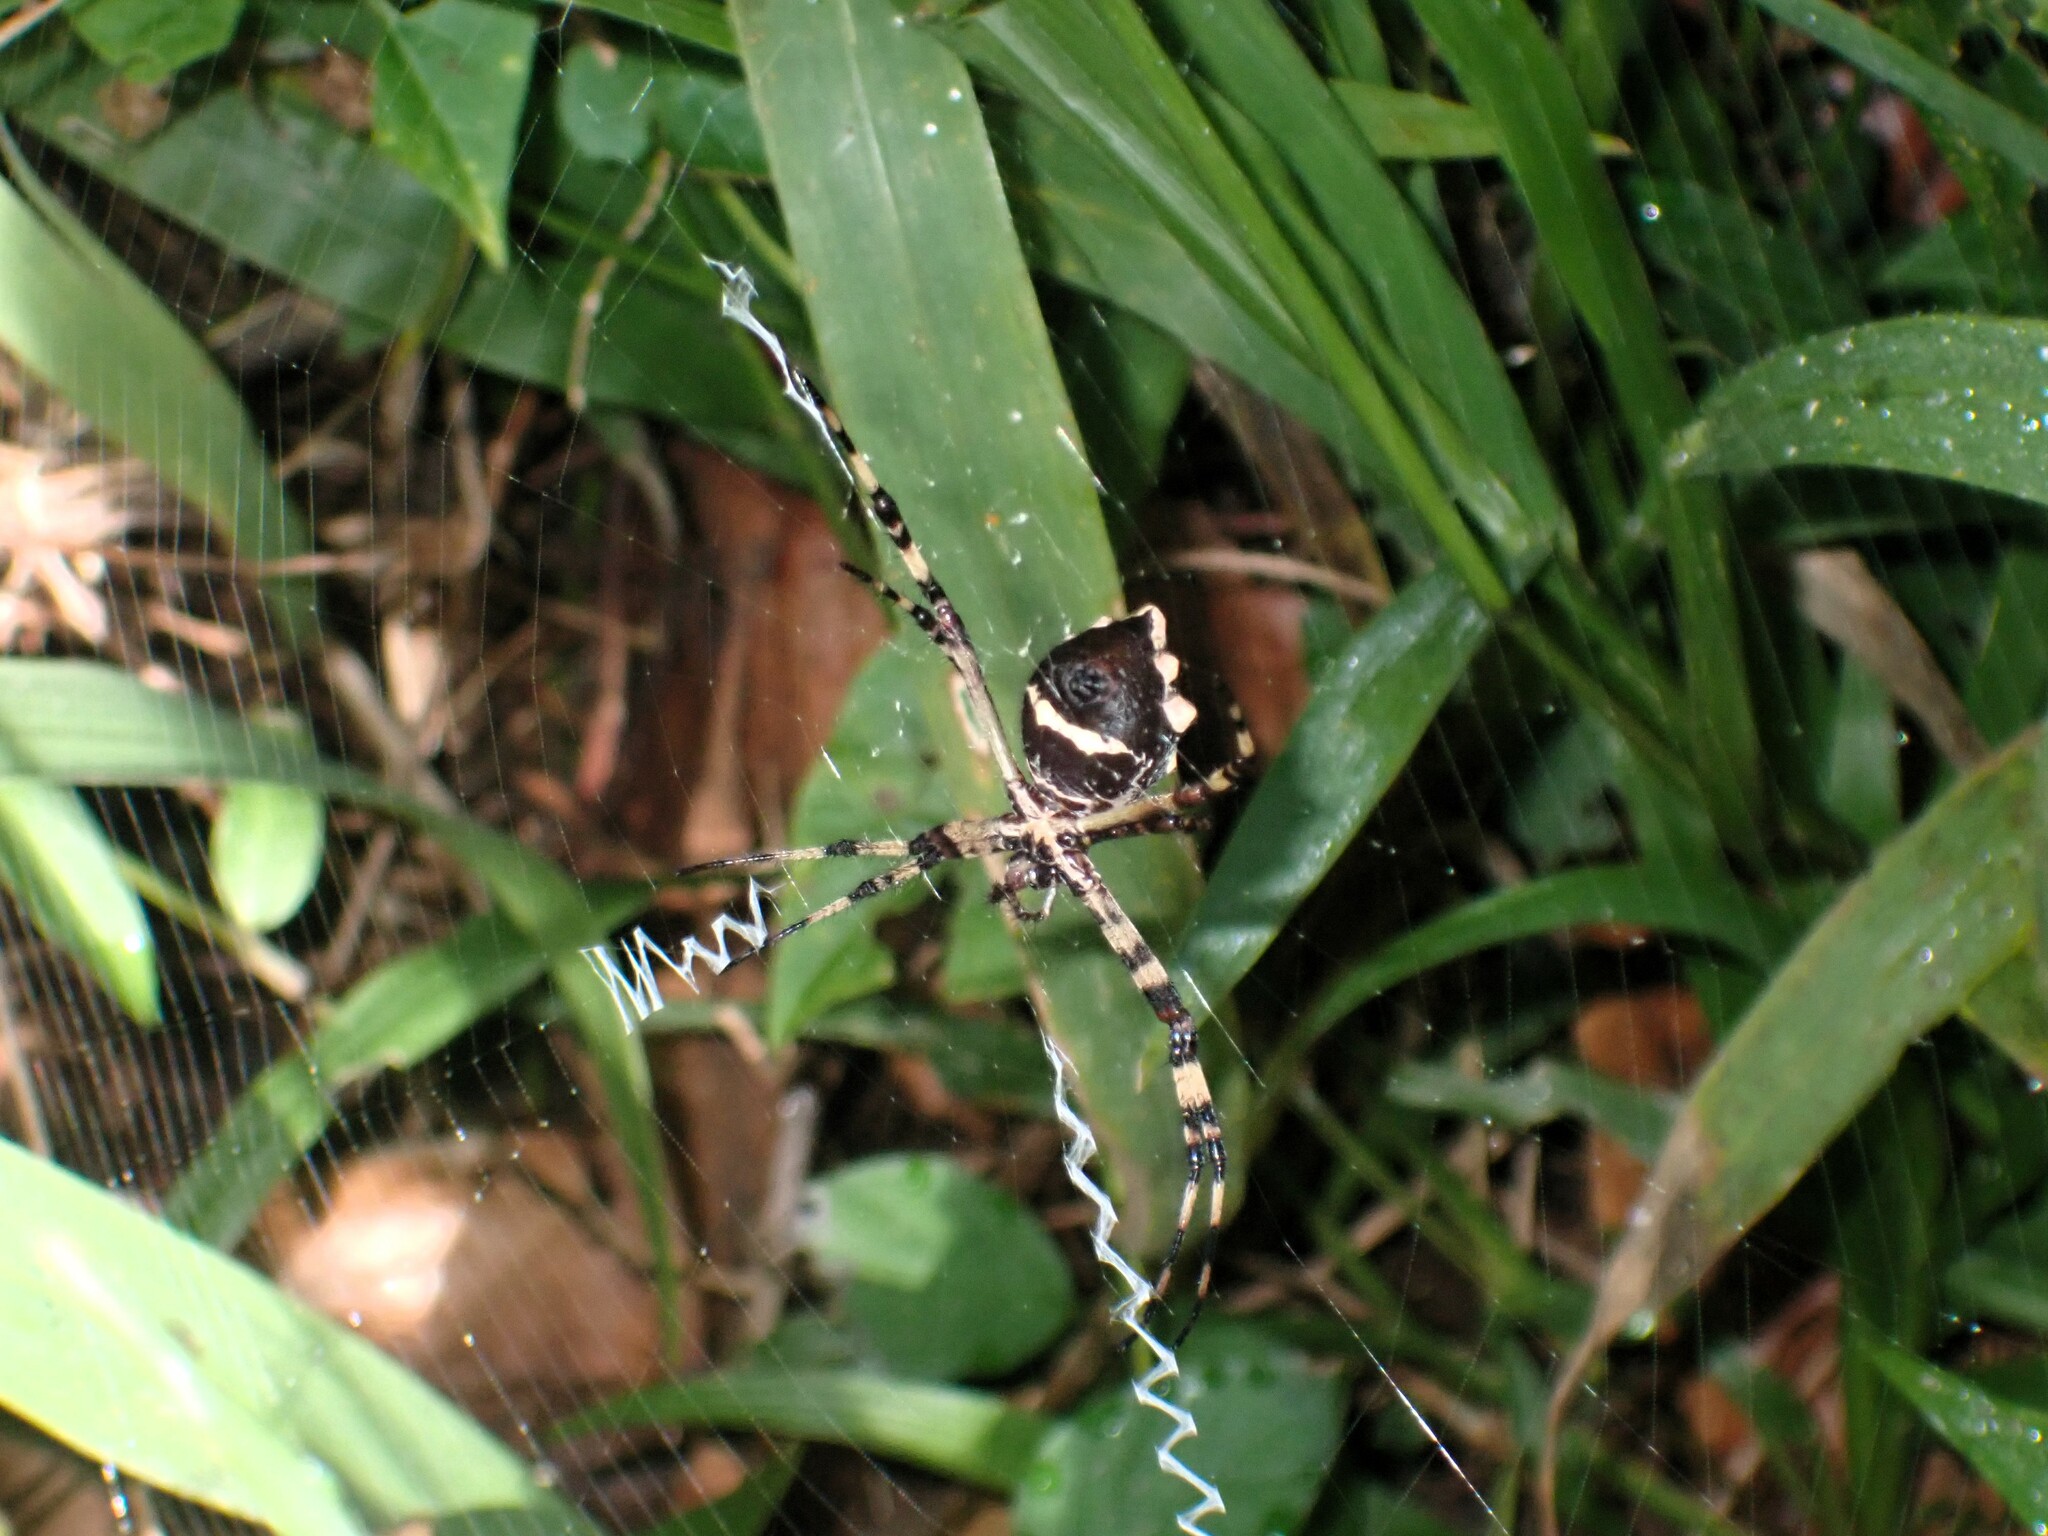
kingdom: Animalia
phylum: Arthropoda
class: Arachnida
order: Araneae
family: Araneidae
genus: Argiope
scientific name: Argiope argentata
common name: Orb weavers
